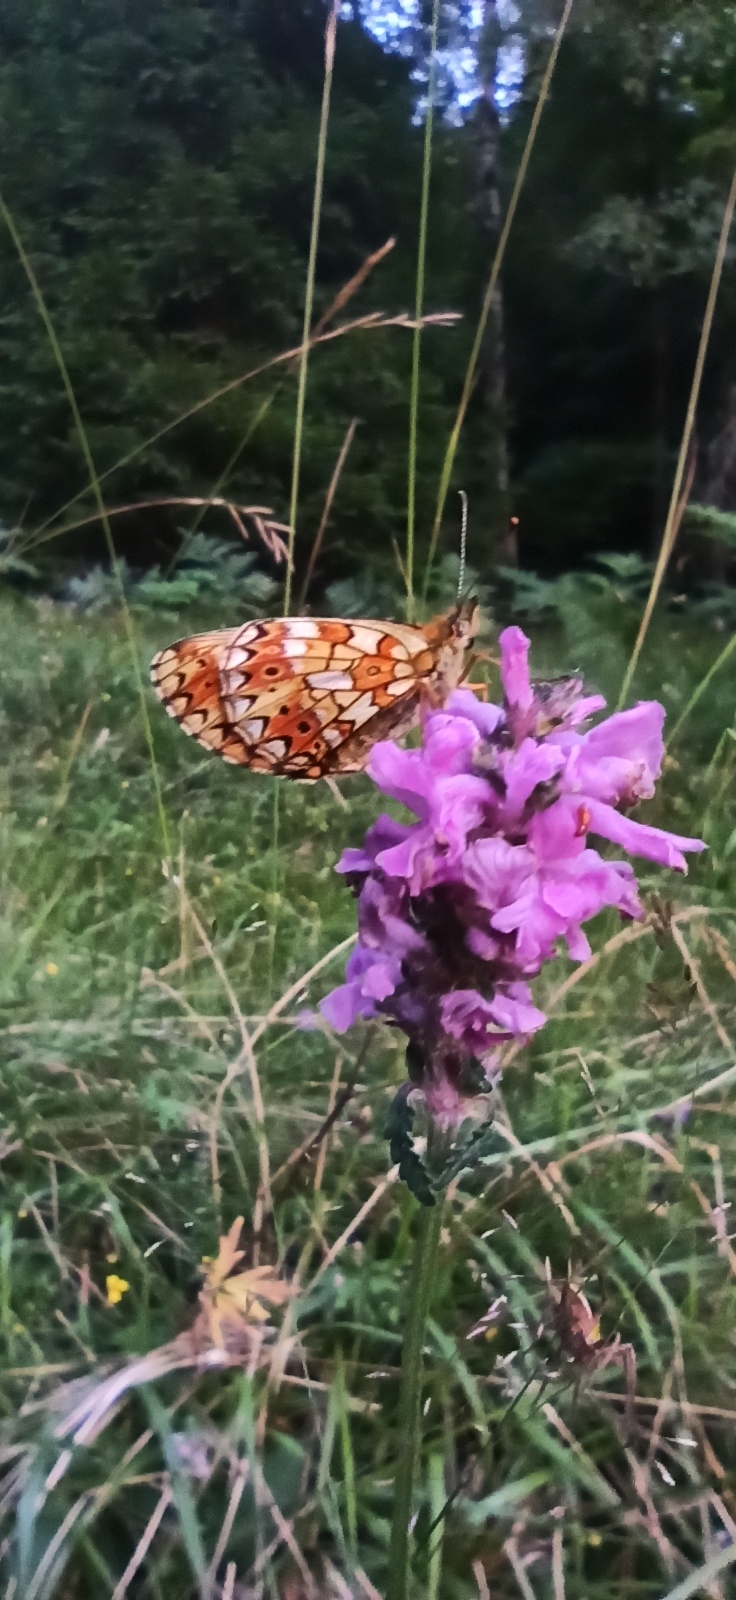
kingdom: Animalia
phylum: Arthropoda
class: Insecta
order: Lepidoptera
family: Nymphalidae
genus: Boloria
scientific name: Boloria selene
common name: Small pearl-bordered fritillary
